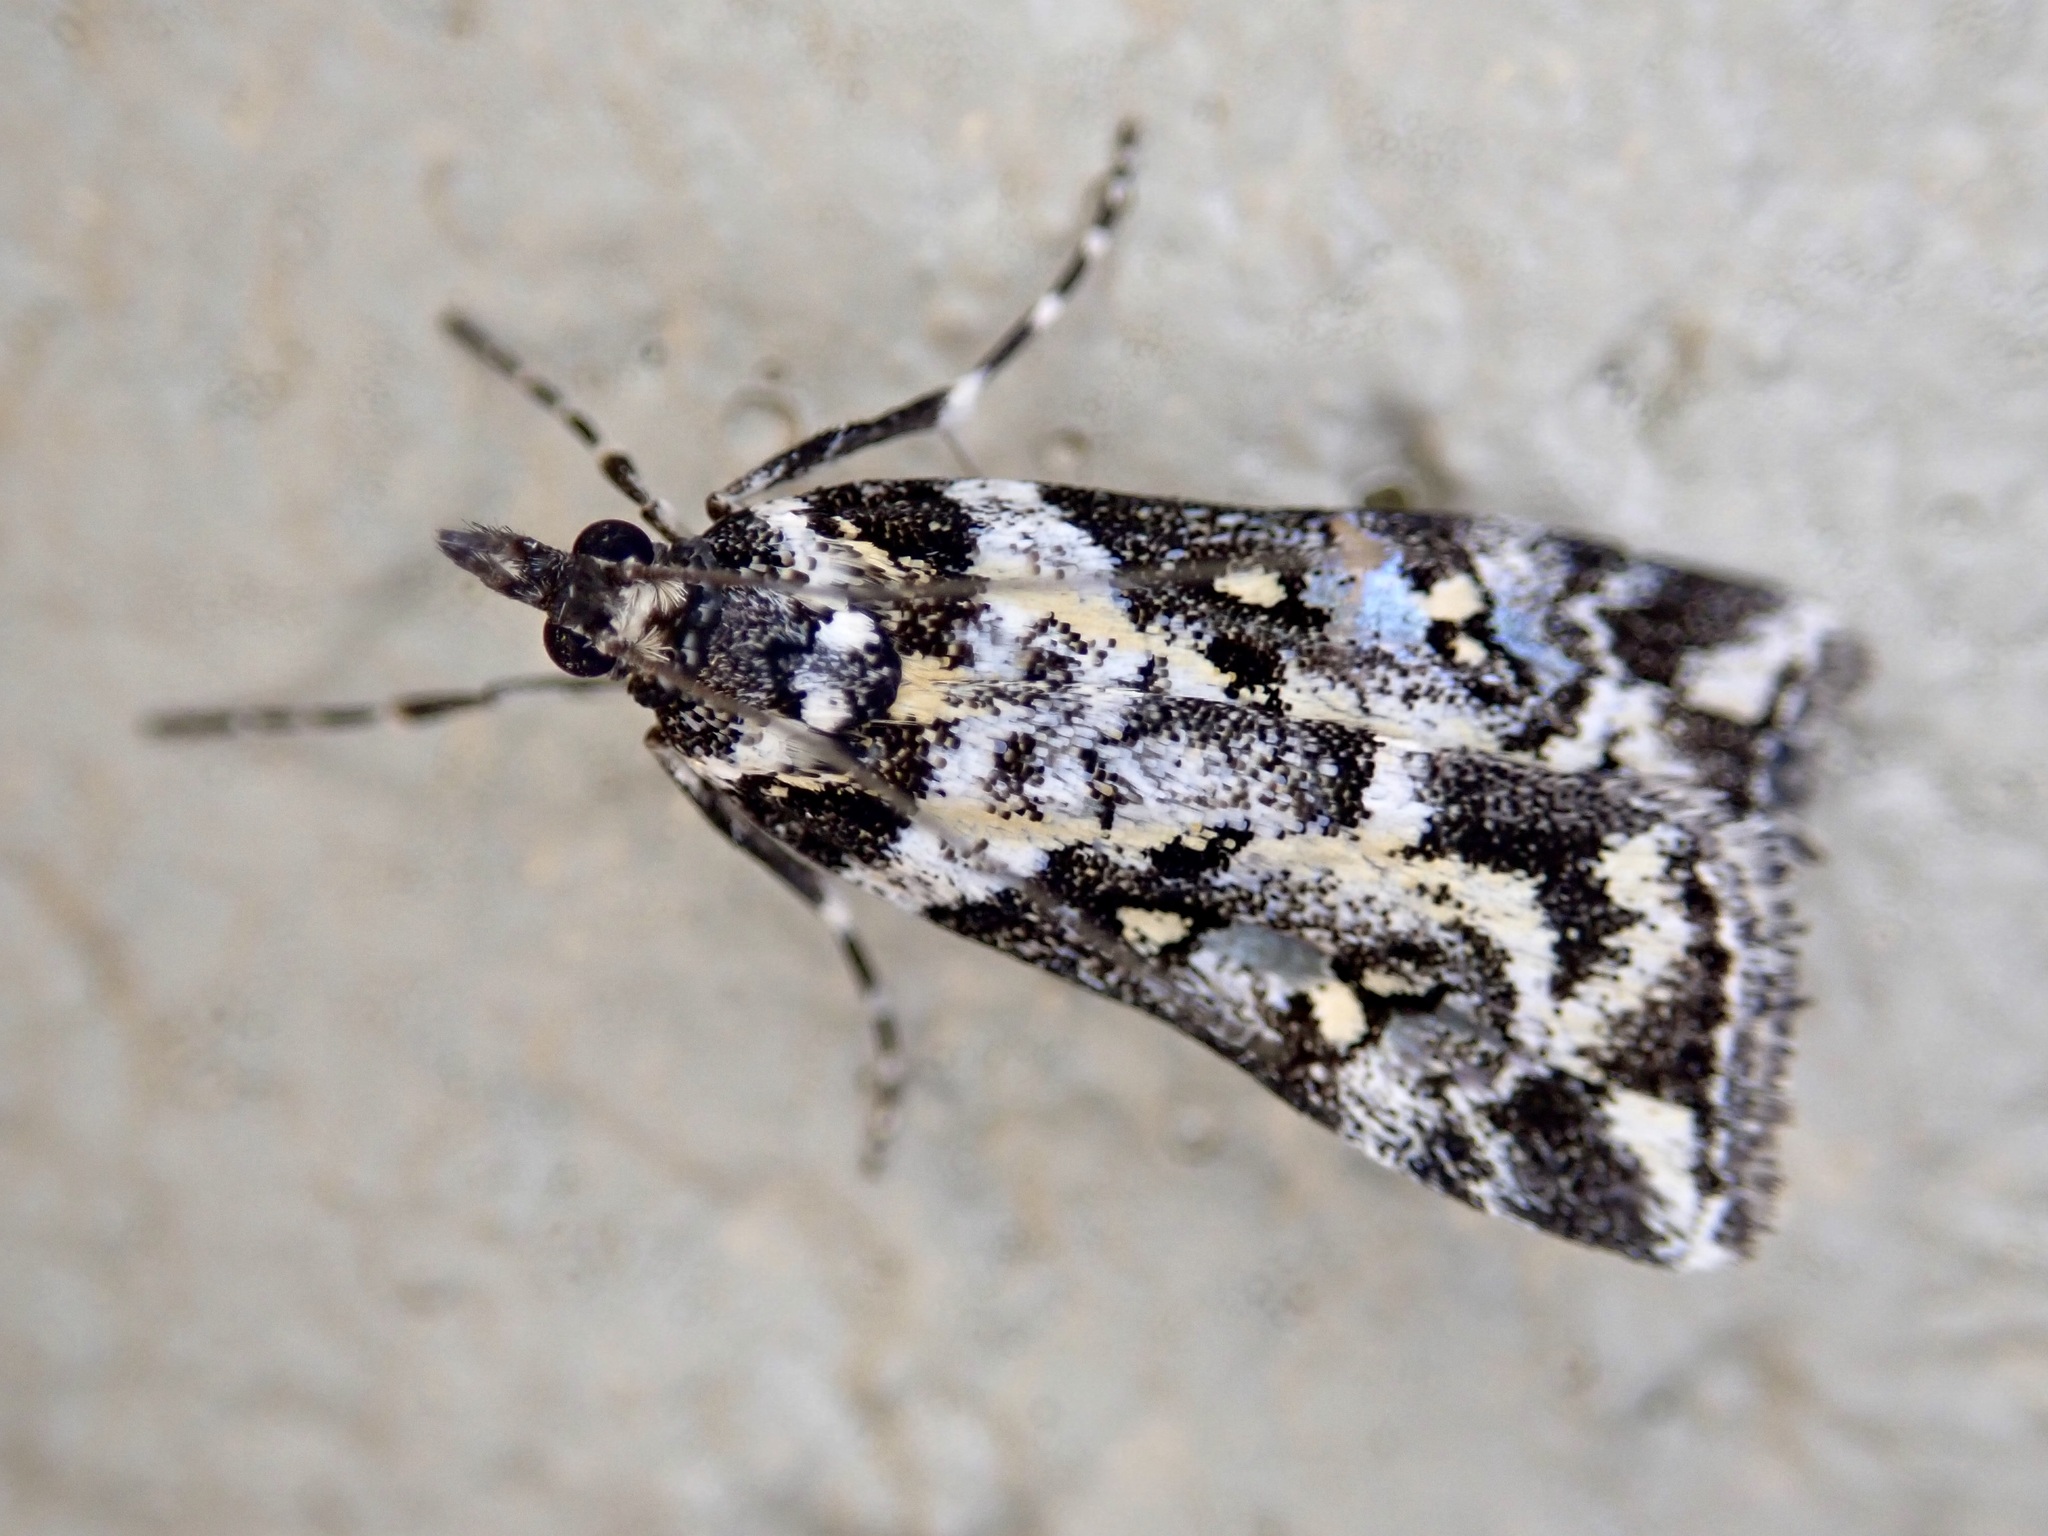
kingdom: Animalia
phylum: Arthropoda
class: Insecta
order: Lepidoptera
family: Crambidae
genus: Eudonia
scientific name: Eudonia diphtheralis
